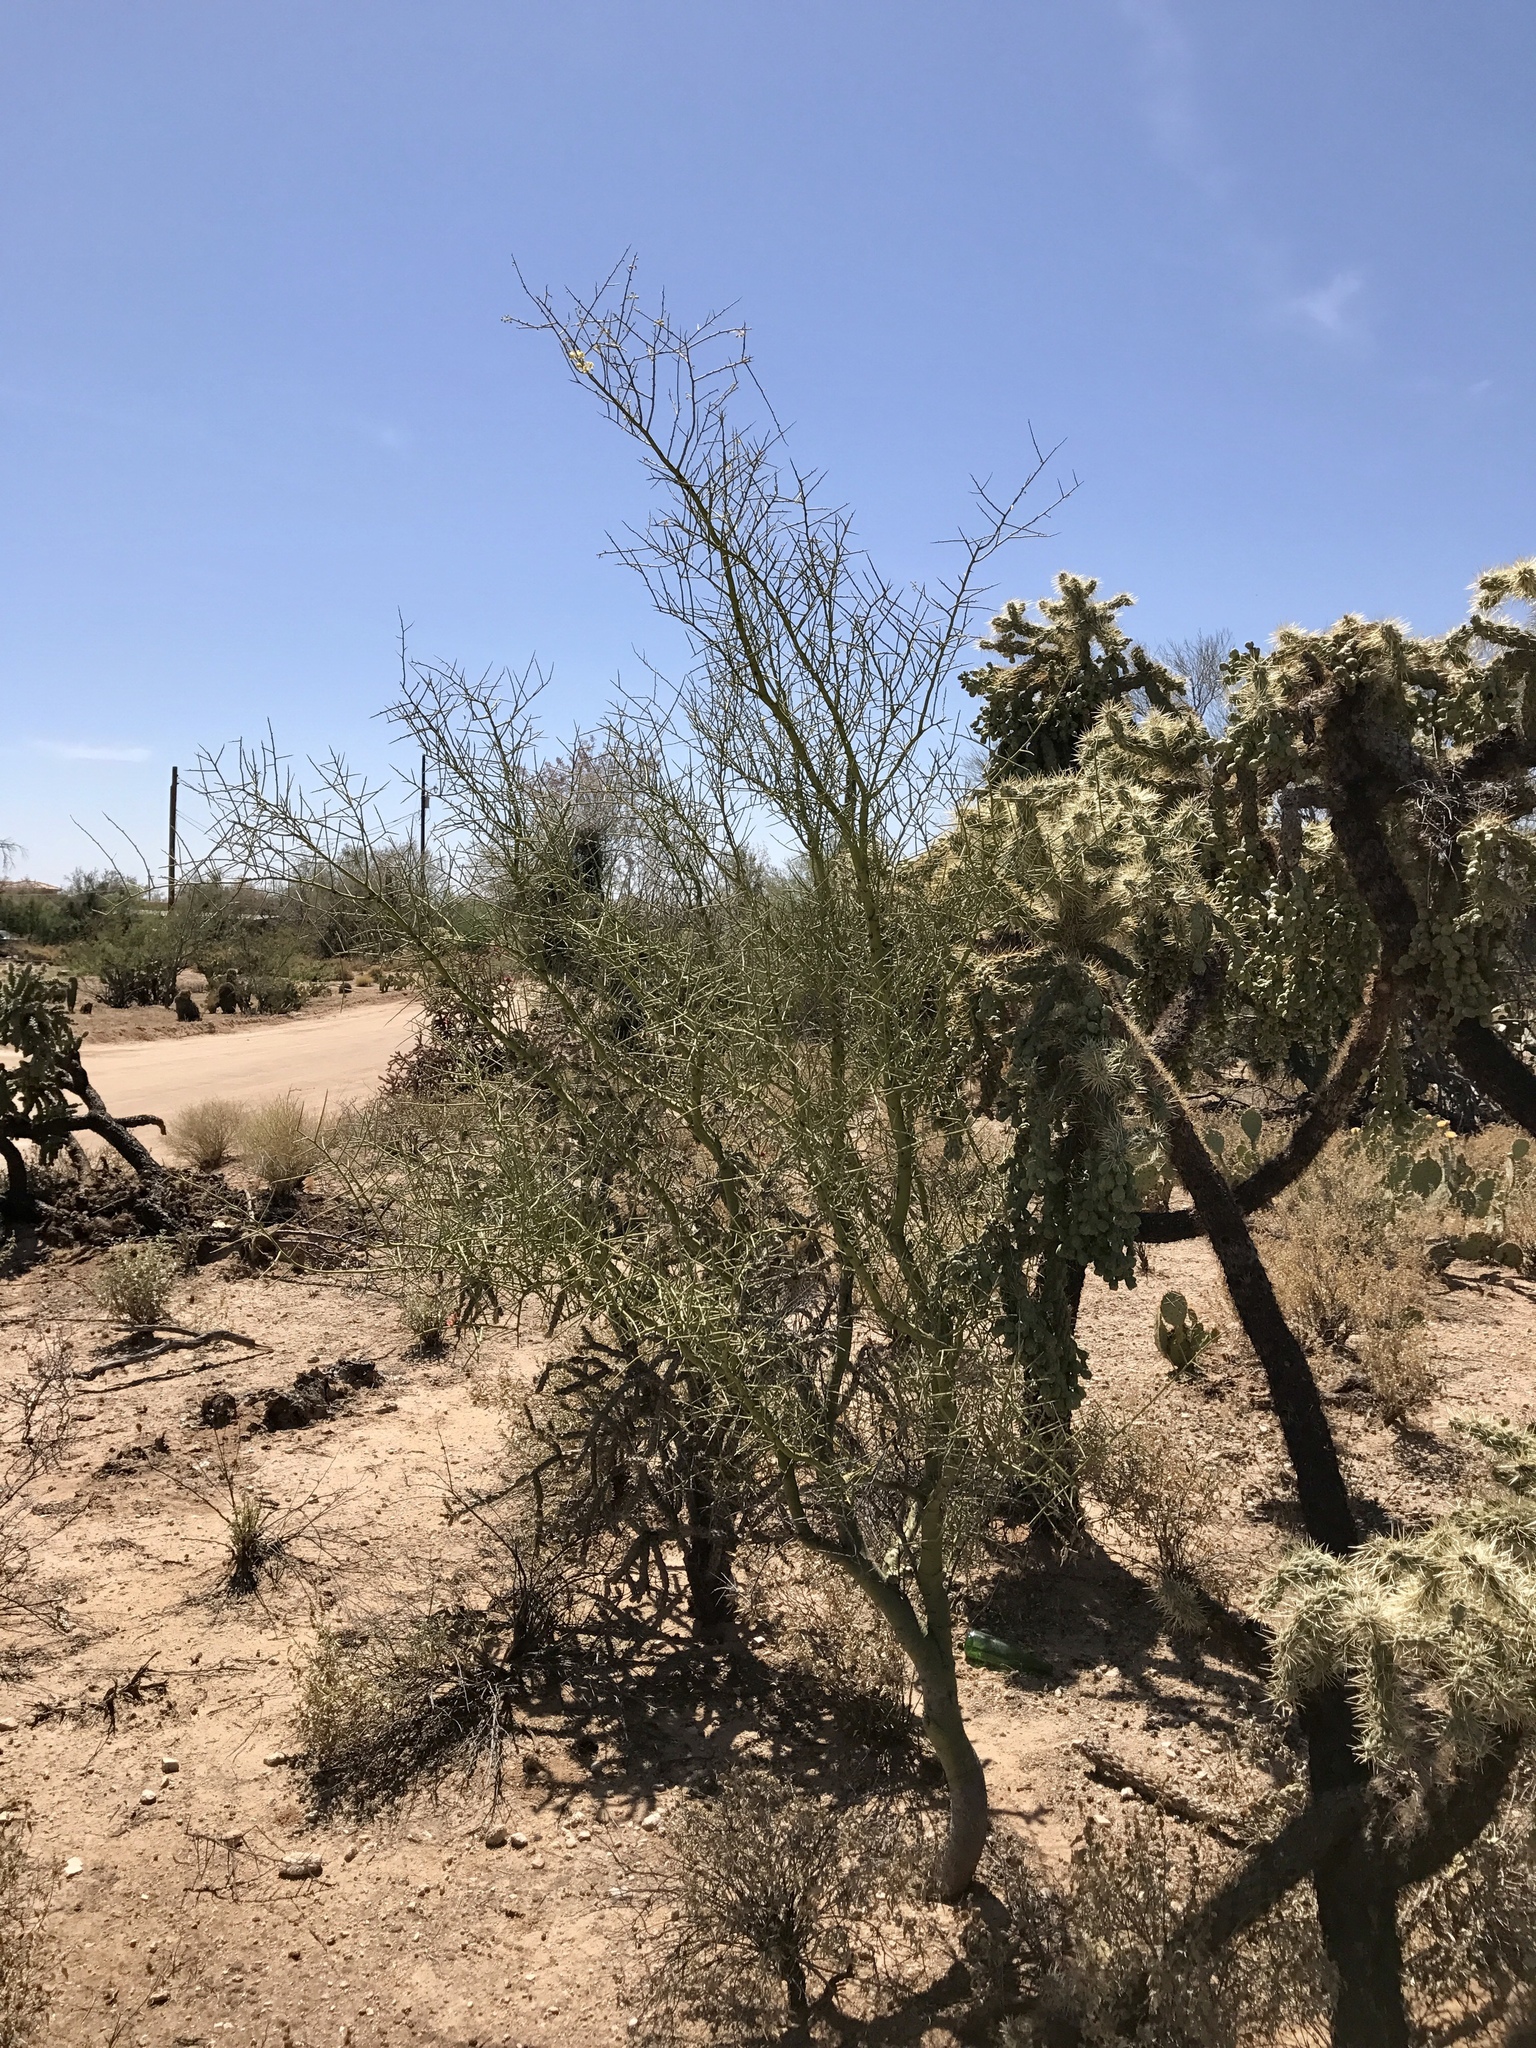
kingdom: Plantae
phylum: Tracheophyta
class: Magnoliopsida
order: Fabales
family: Fabaceae
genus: Parkinsonia
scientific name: Parkinsonia florida
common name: Blue paloverde
